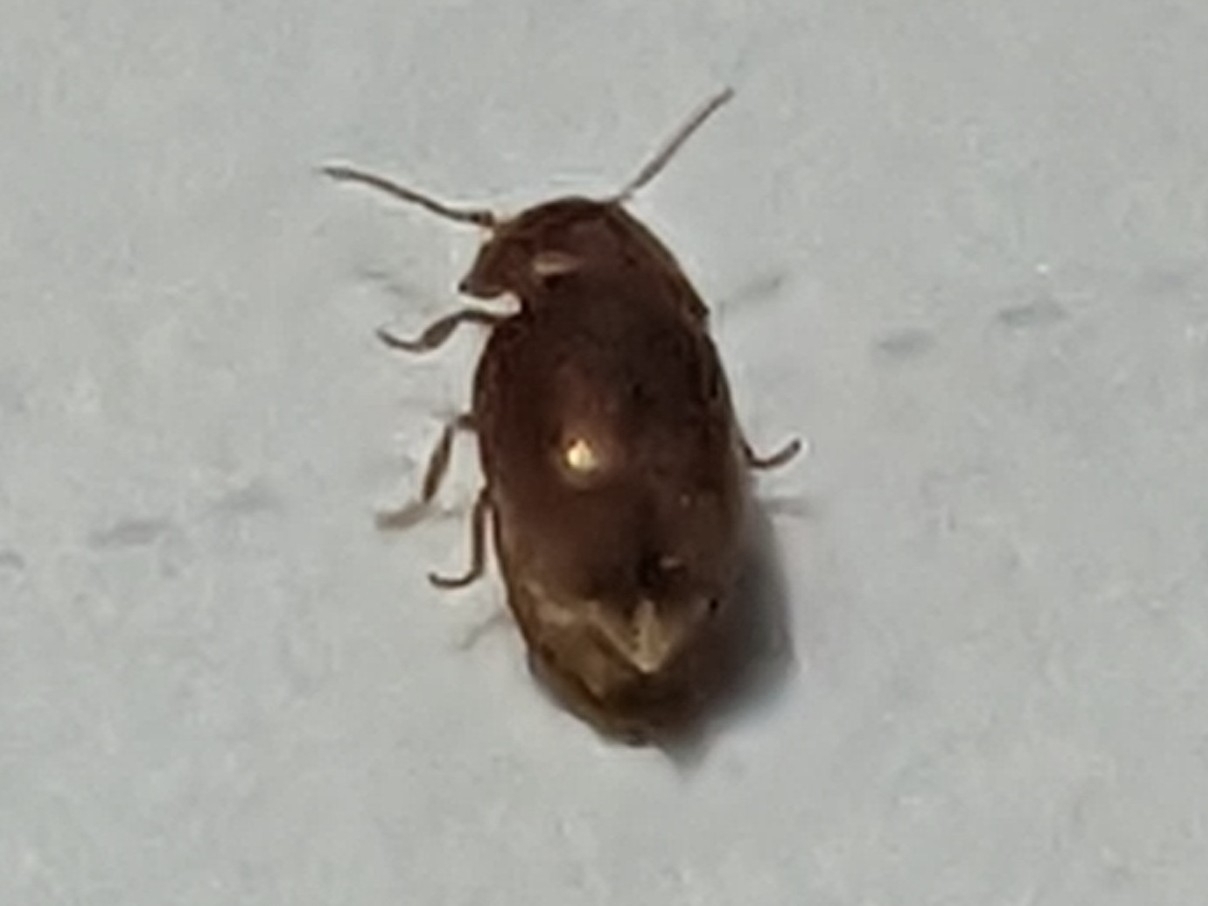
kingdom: Animalia
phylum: Arthropoda
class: Insecta
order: Coleoptera
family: Anobiidae
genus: Lasioderma
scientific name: Lasioderma serricorne
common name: Cigarette beetle
